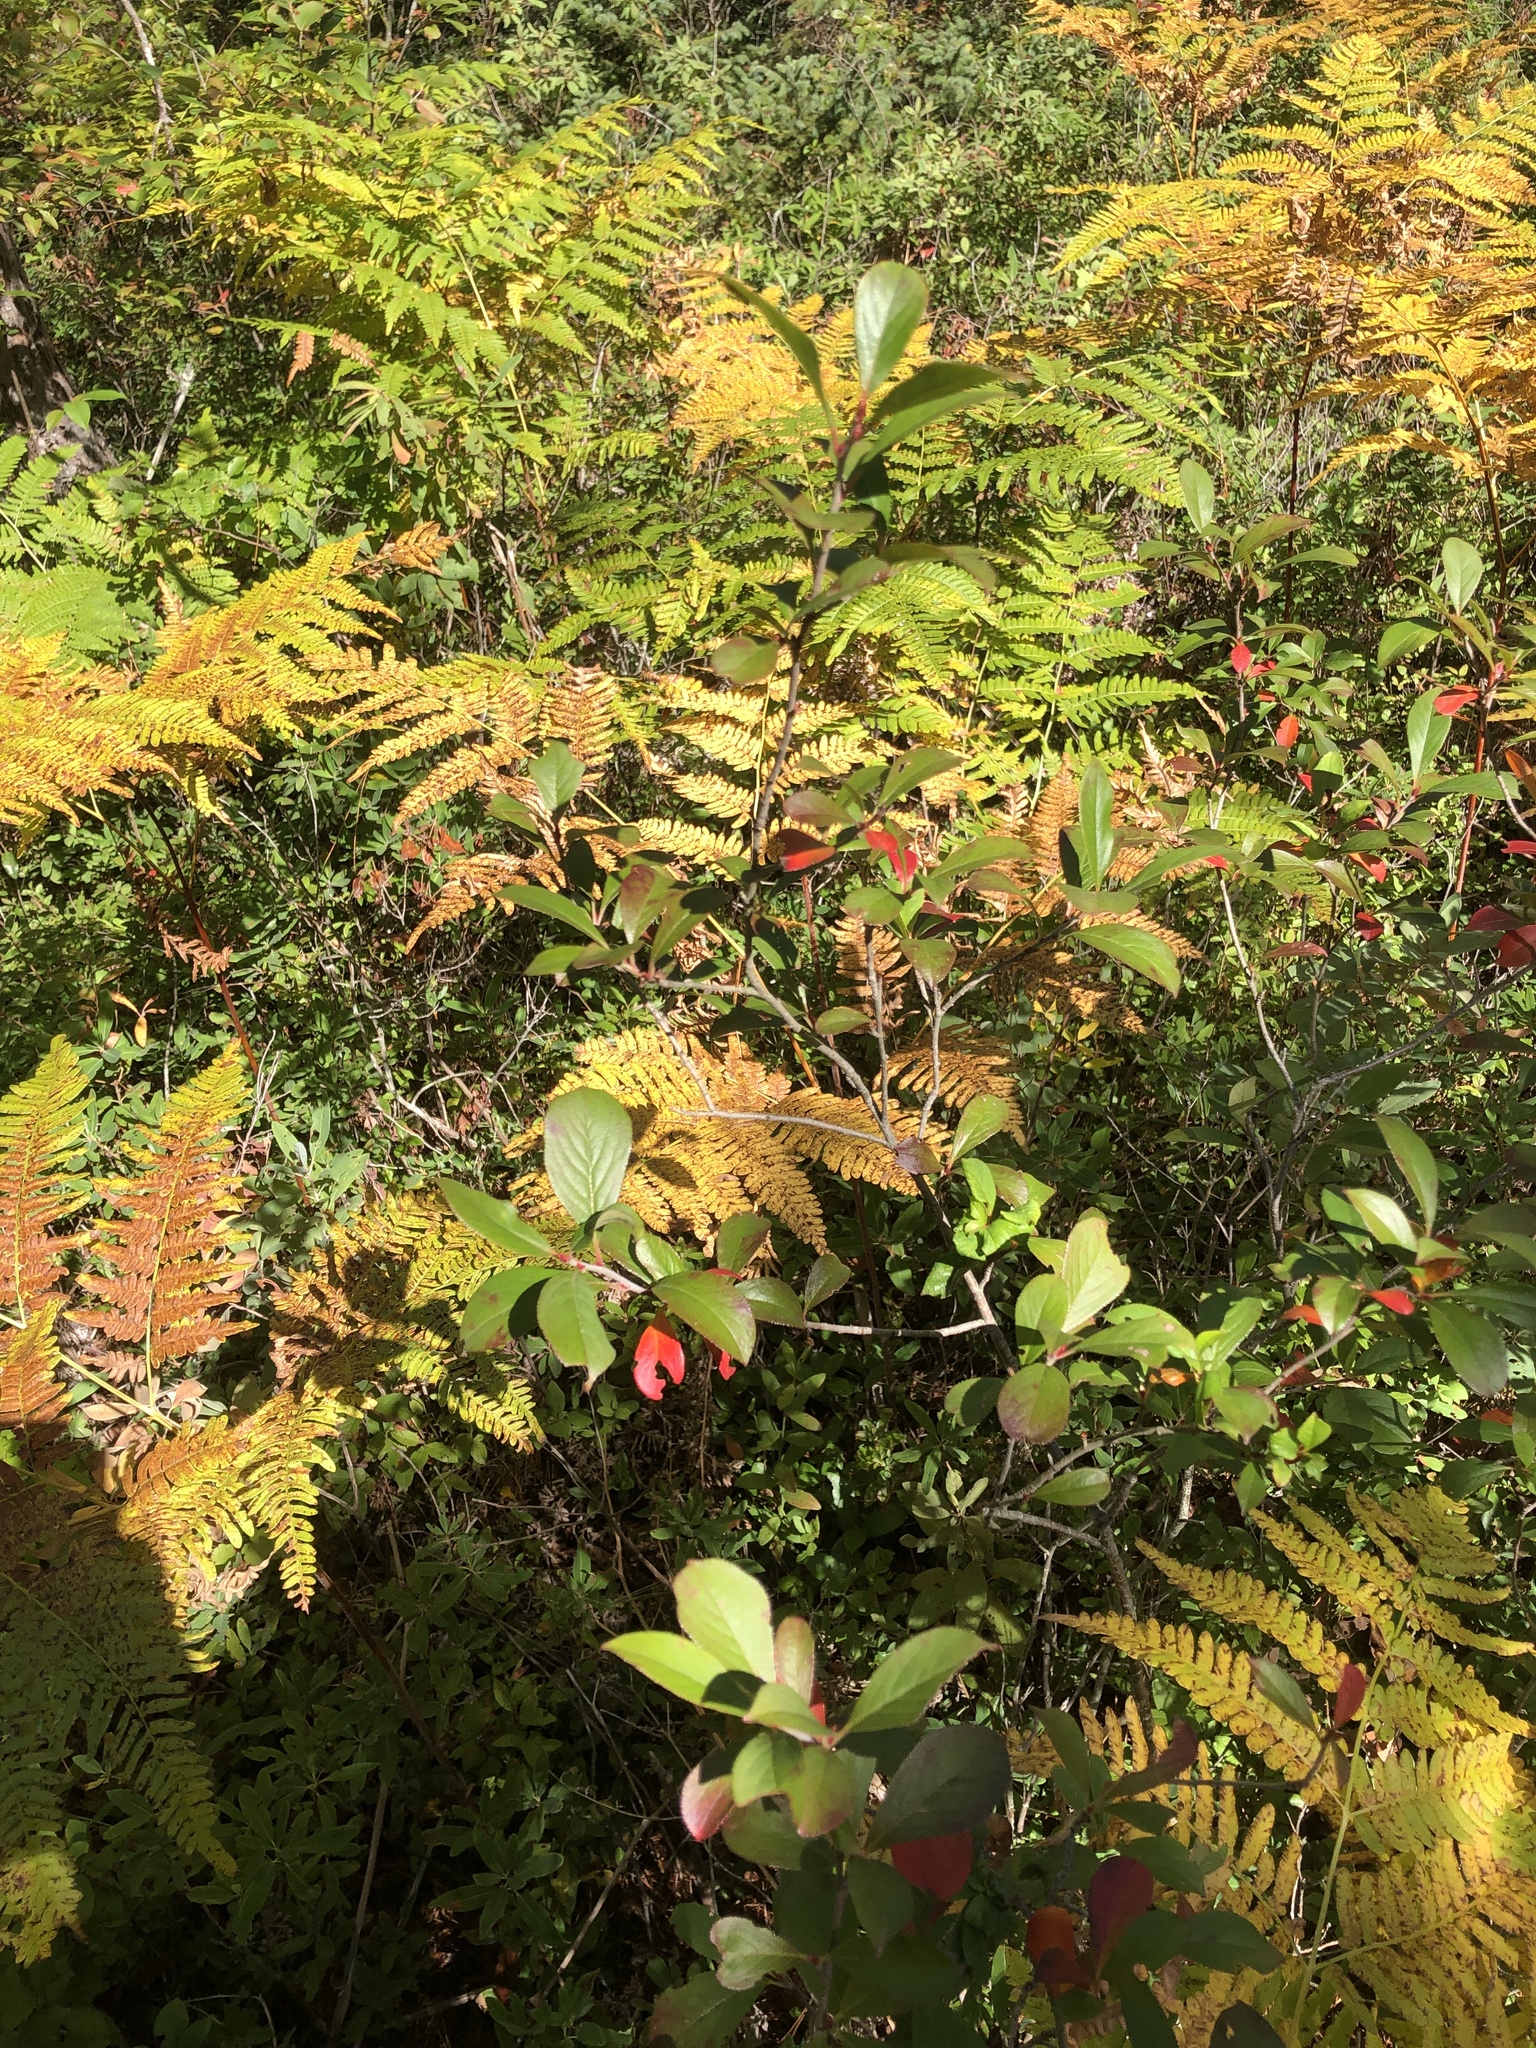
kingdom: Plantae
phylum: Tracheophyta
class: Magnoliopsida
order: Rosales
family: Rosaceae
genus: Aronia
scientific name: Aronia melanocarpa
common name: Black chokeberry
